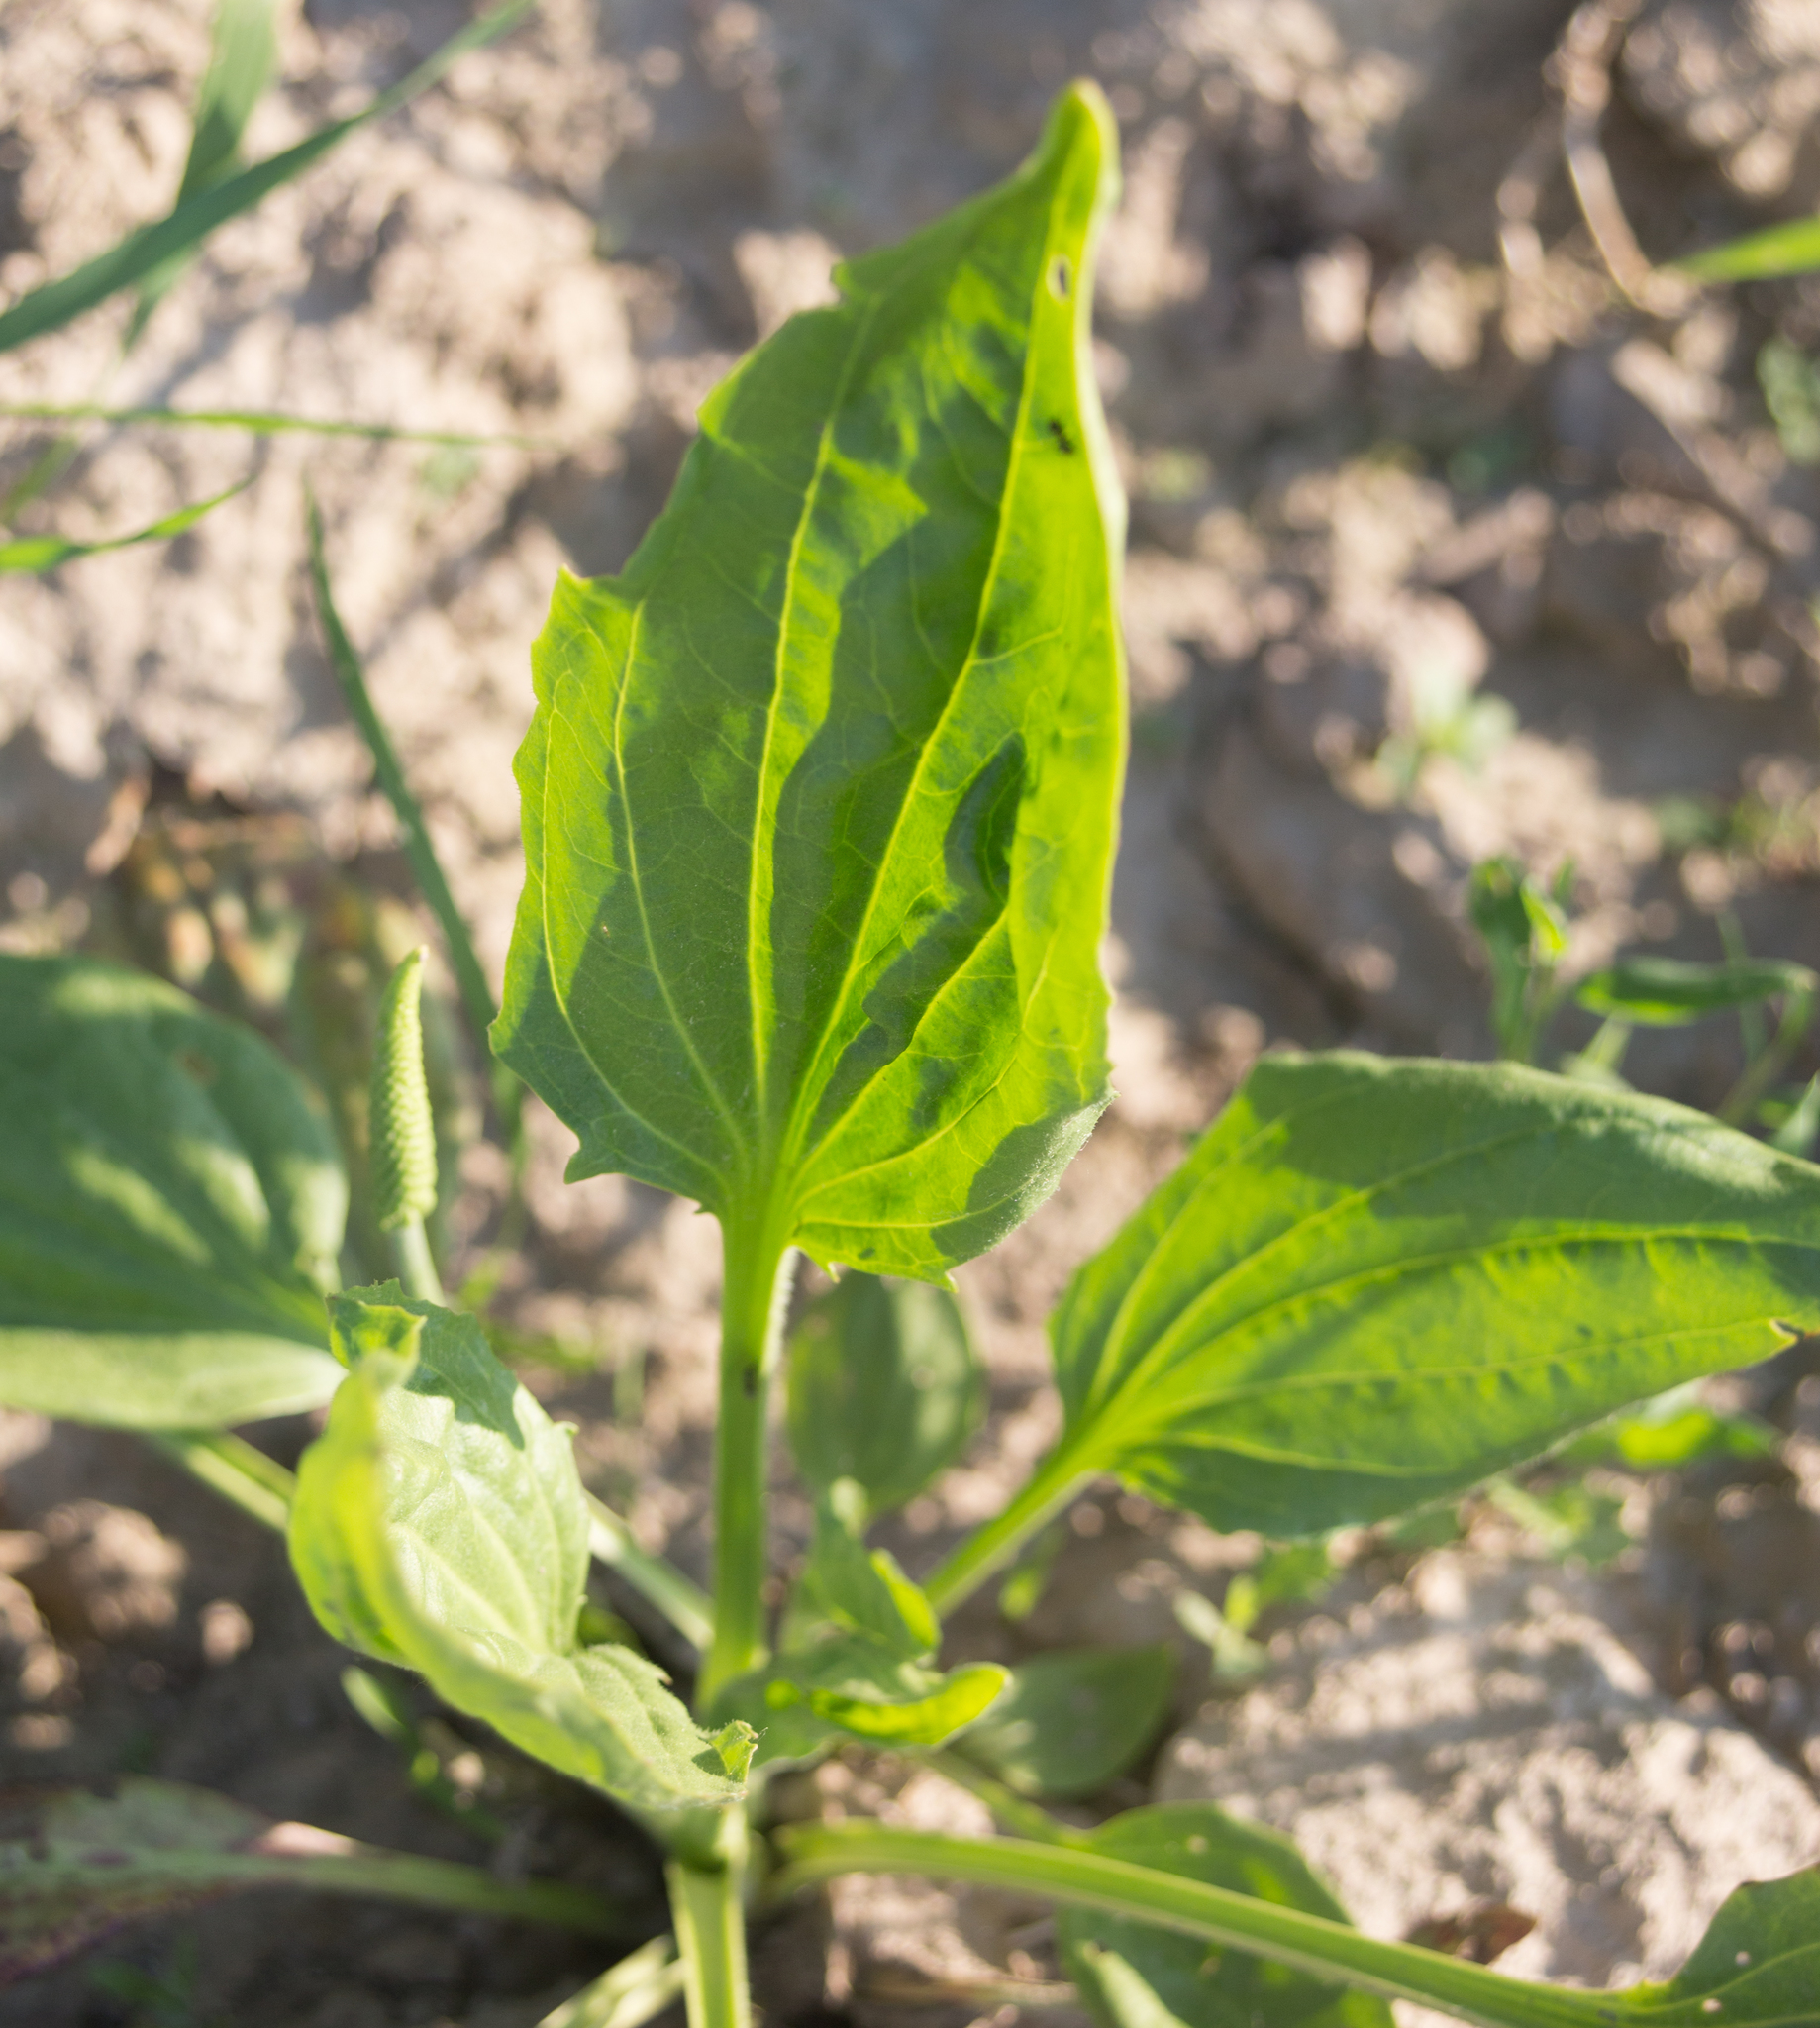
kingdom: Plantae
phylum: Tracheophyta
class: Magnoliopsida
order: Lamiales
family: Plantaginaceae
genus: Plantago
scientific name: Plantago major
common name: Common plantain
